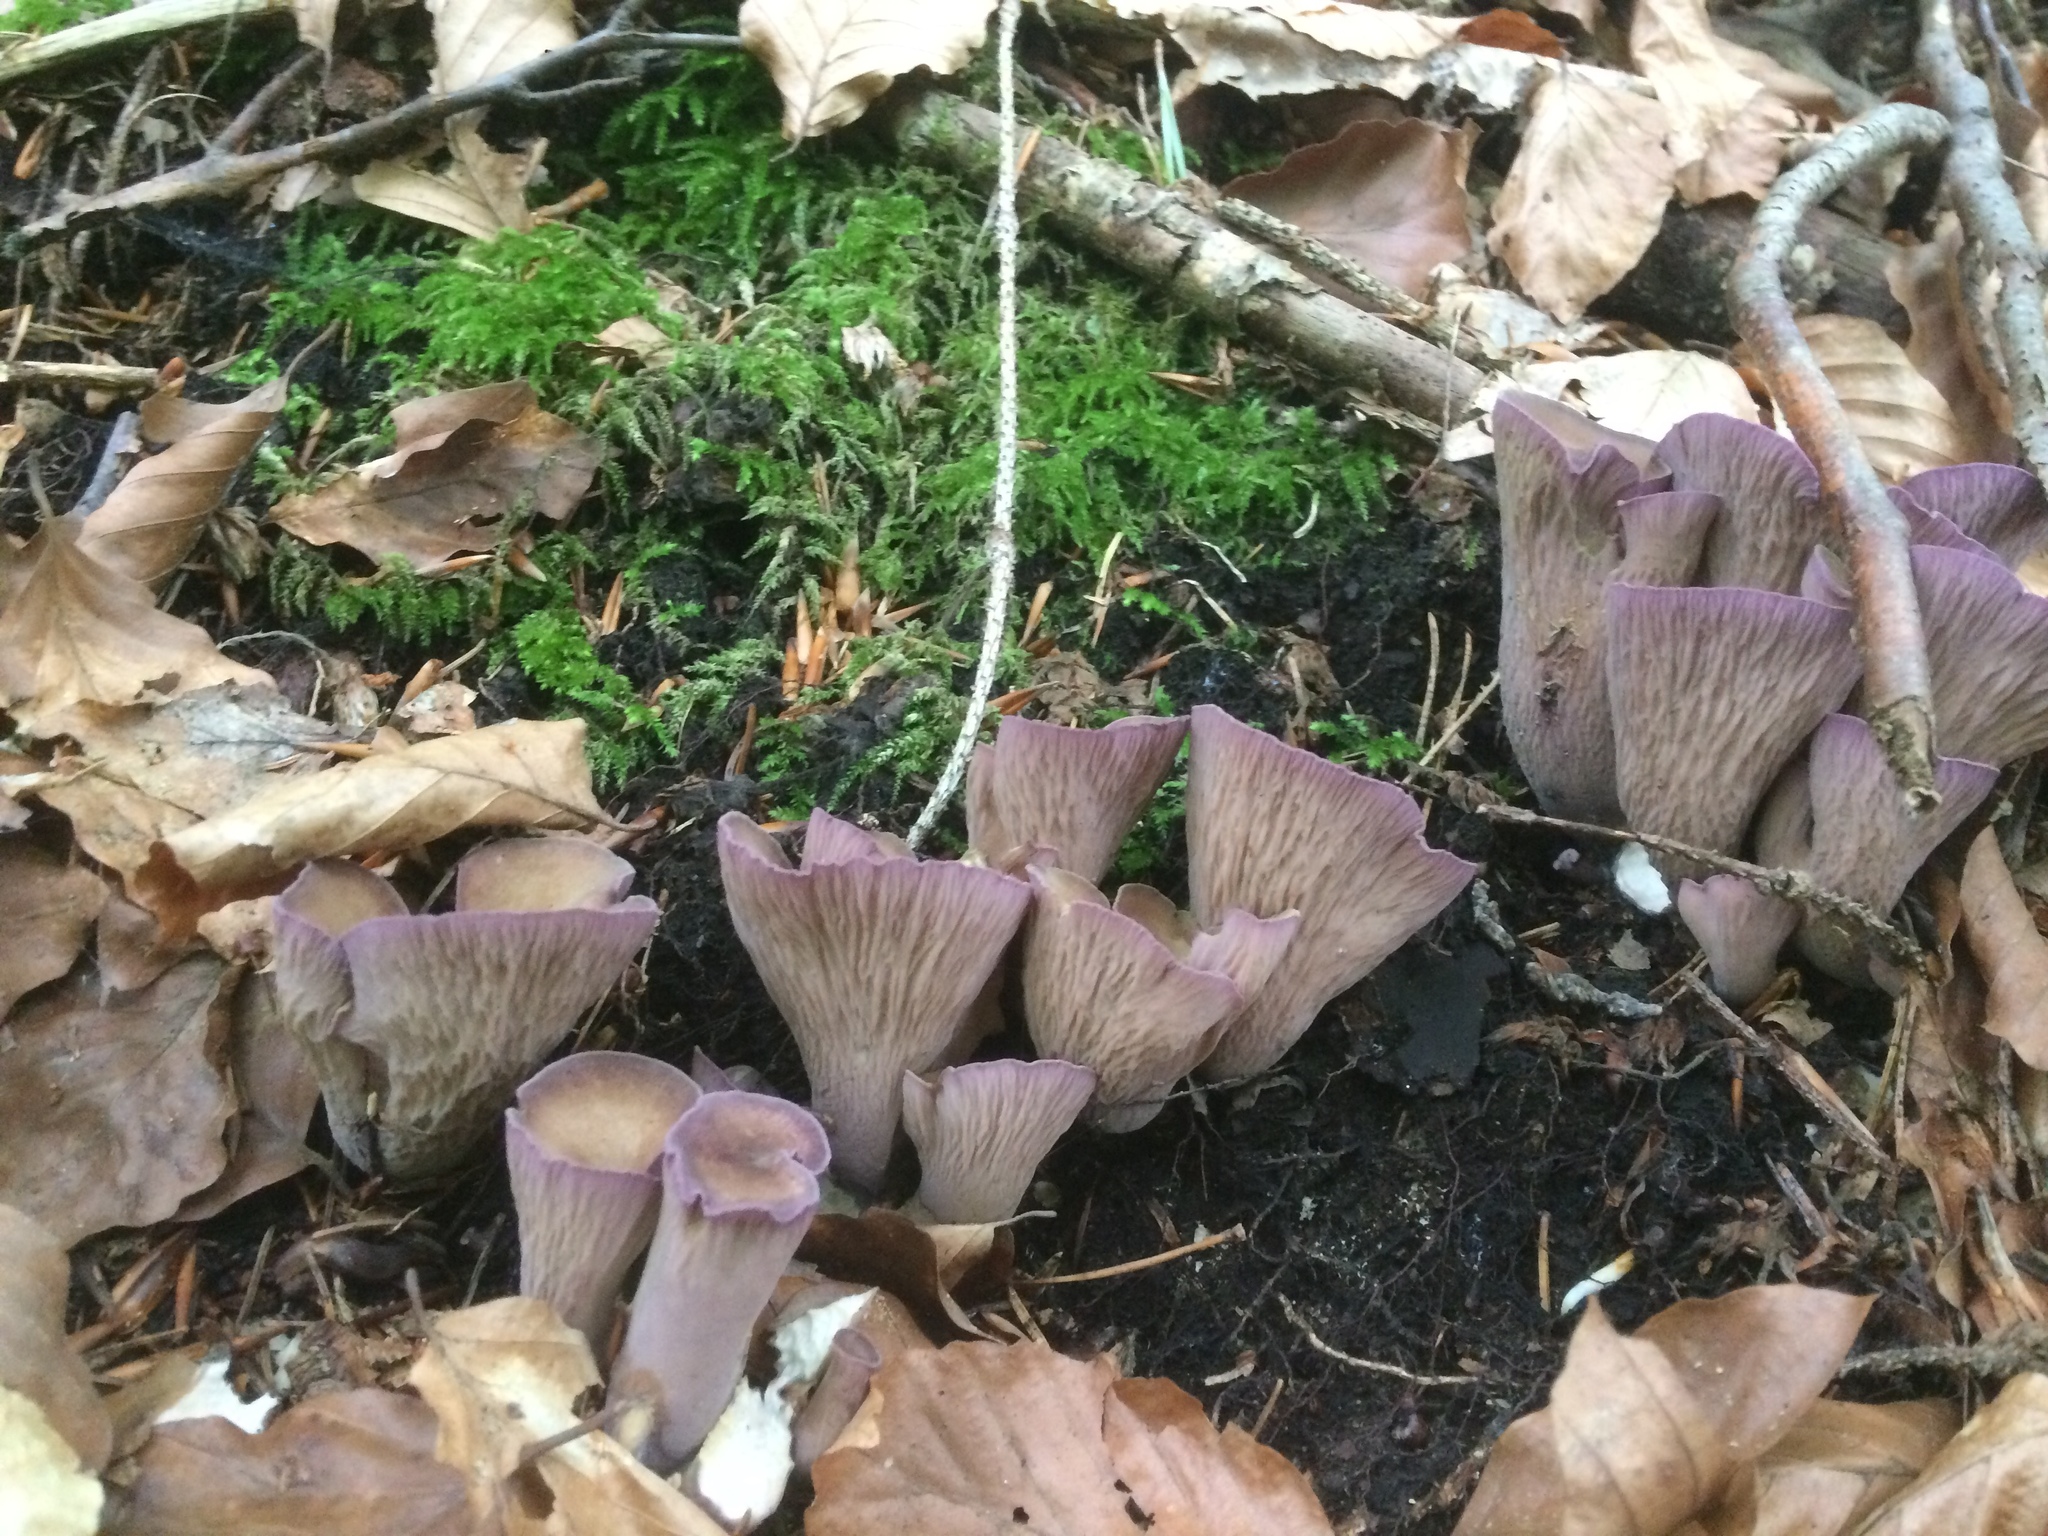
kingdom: Fungi
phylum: Basidiomycota
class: Agaricomycetes
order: Gomphales
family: Gomphaceae
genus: Gomphus
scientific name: Gomphus clavatus
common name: Pig's ear
